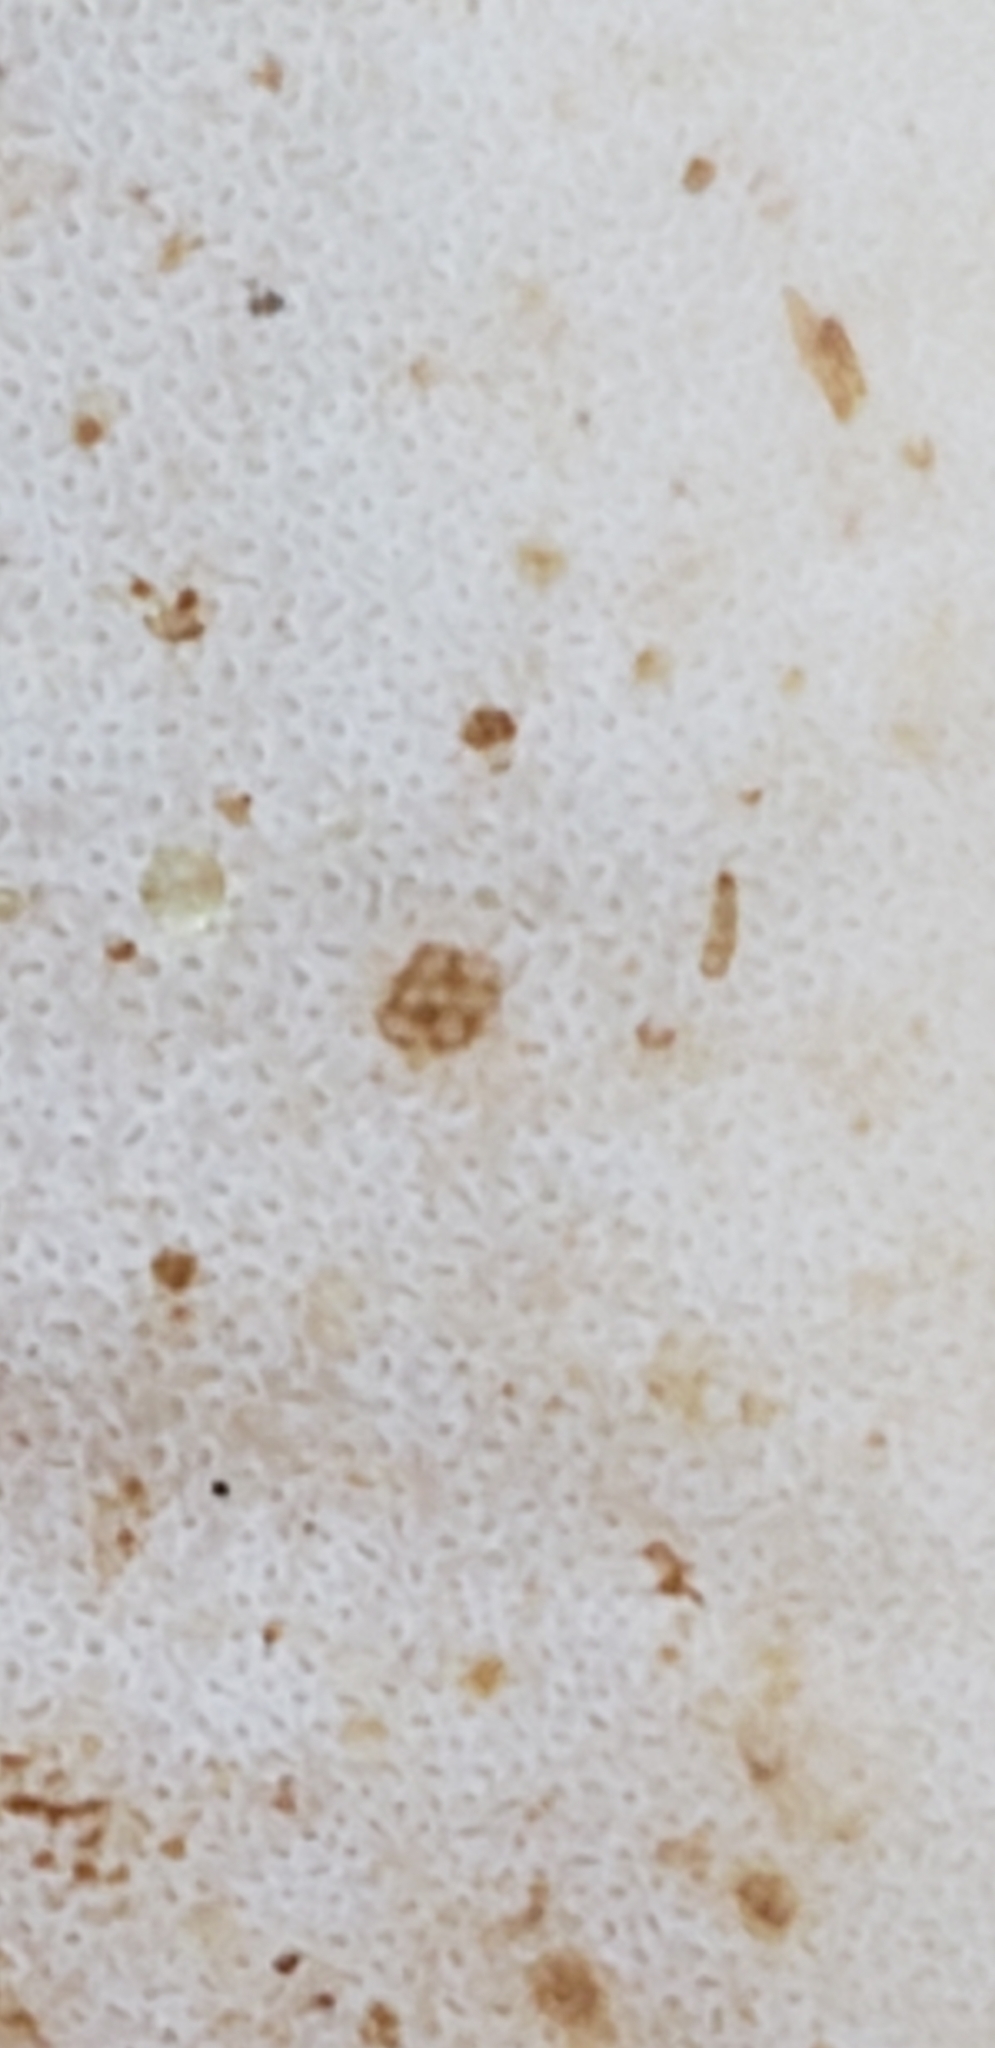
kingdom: Fungi
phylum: Basidiomycota
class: Agaricomycetes
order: Polyporales
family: Ischnodermataceae
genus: Ischnoderma
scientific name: Ischnoderma resinosum
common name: Resinous polypore
